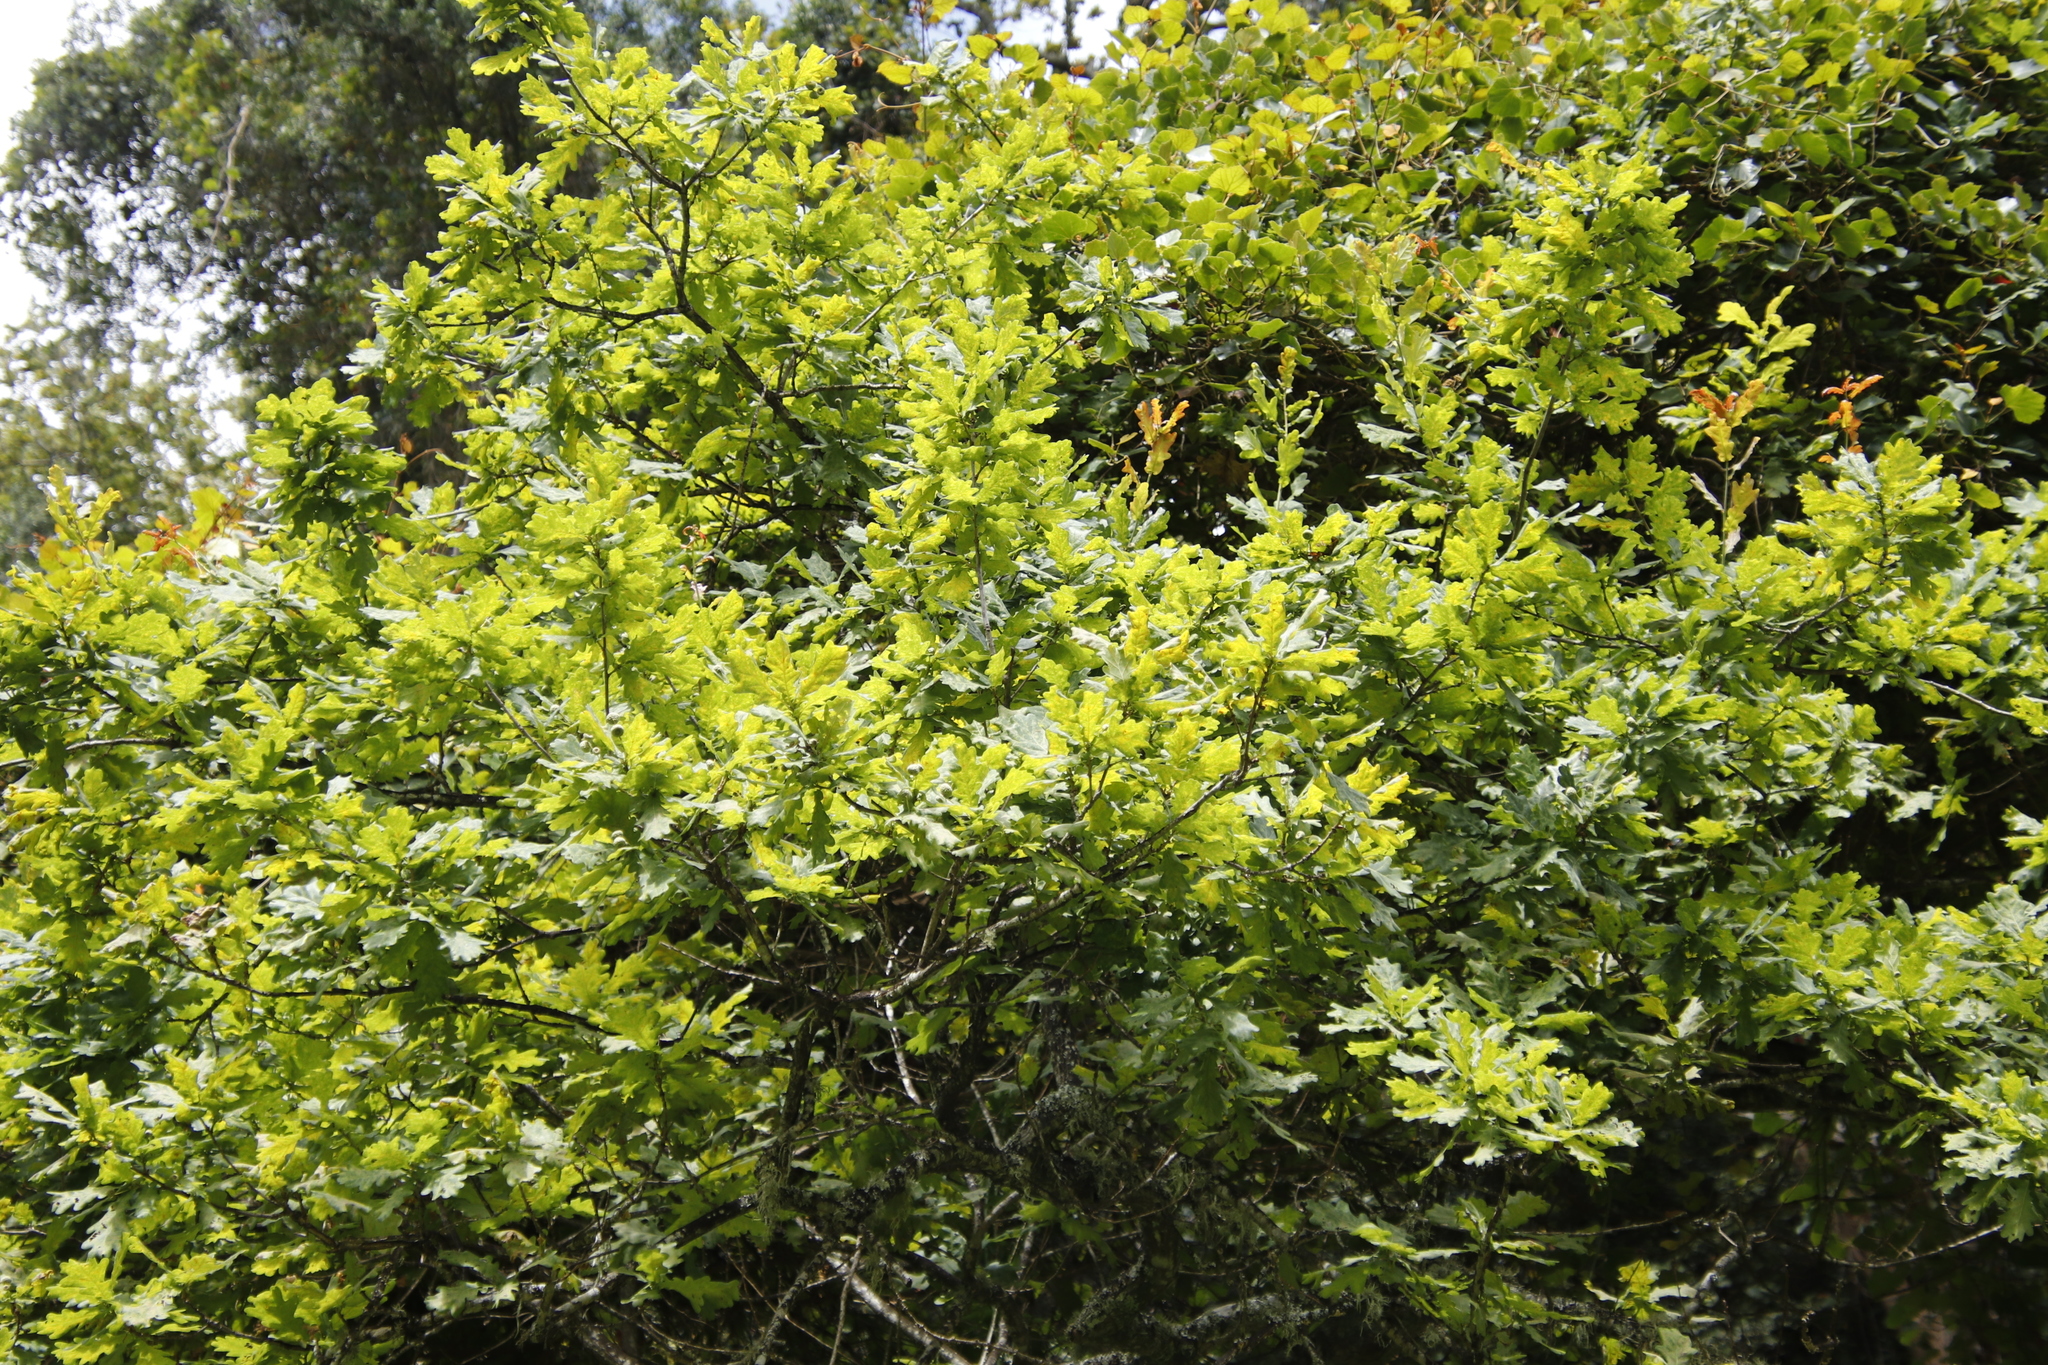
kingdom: Plantae
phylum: Tracheophyta
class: Magnoliopsida
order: Fagales
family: Fagaceae
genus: Quercus
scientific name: Quercus robur
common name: Pedunculate oak
